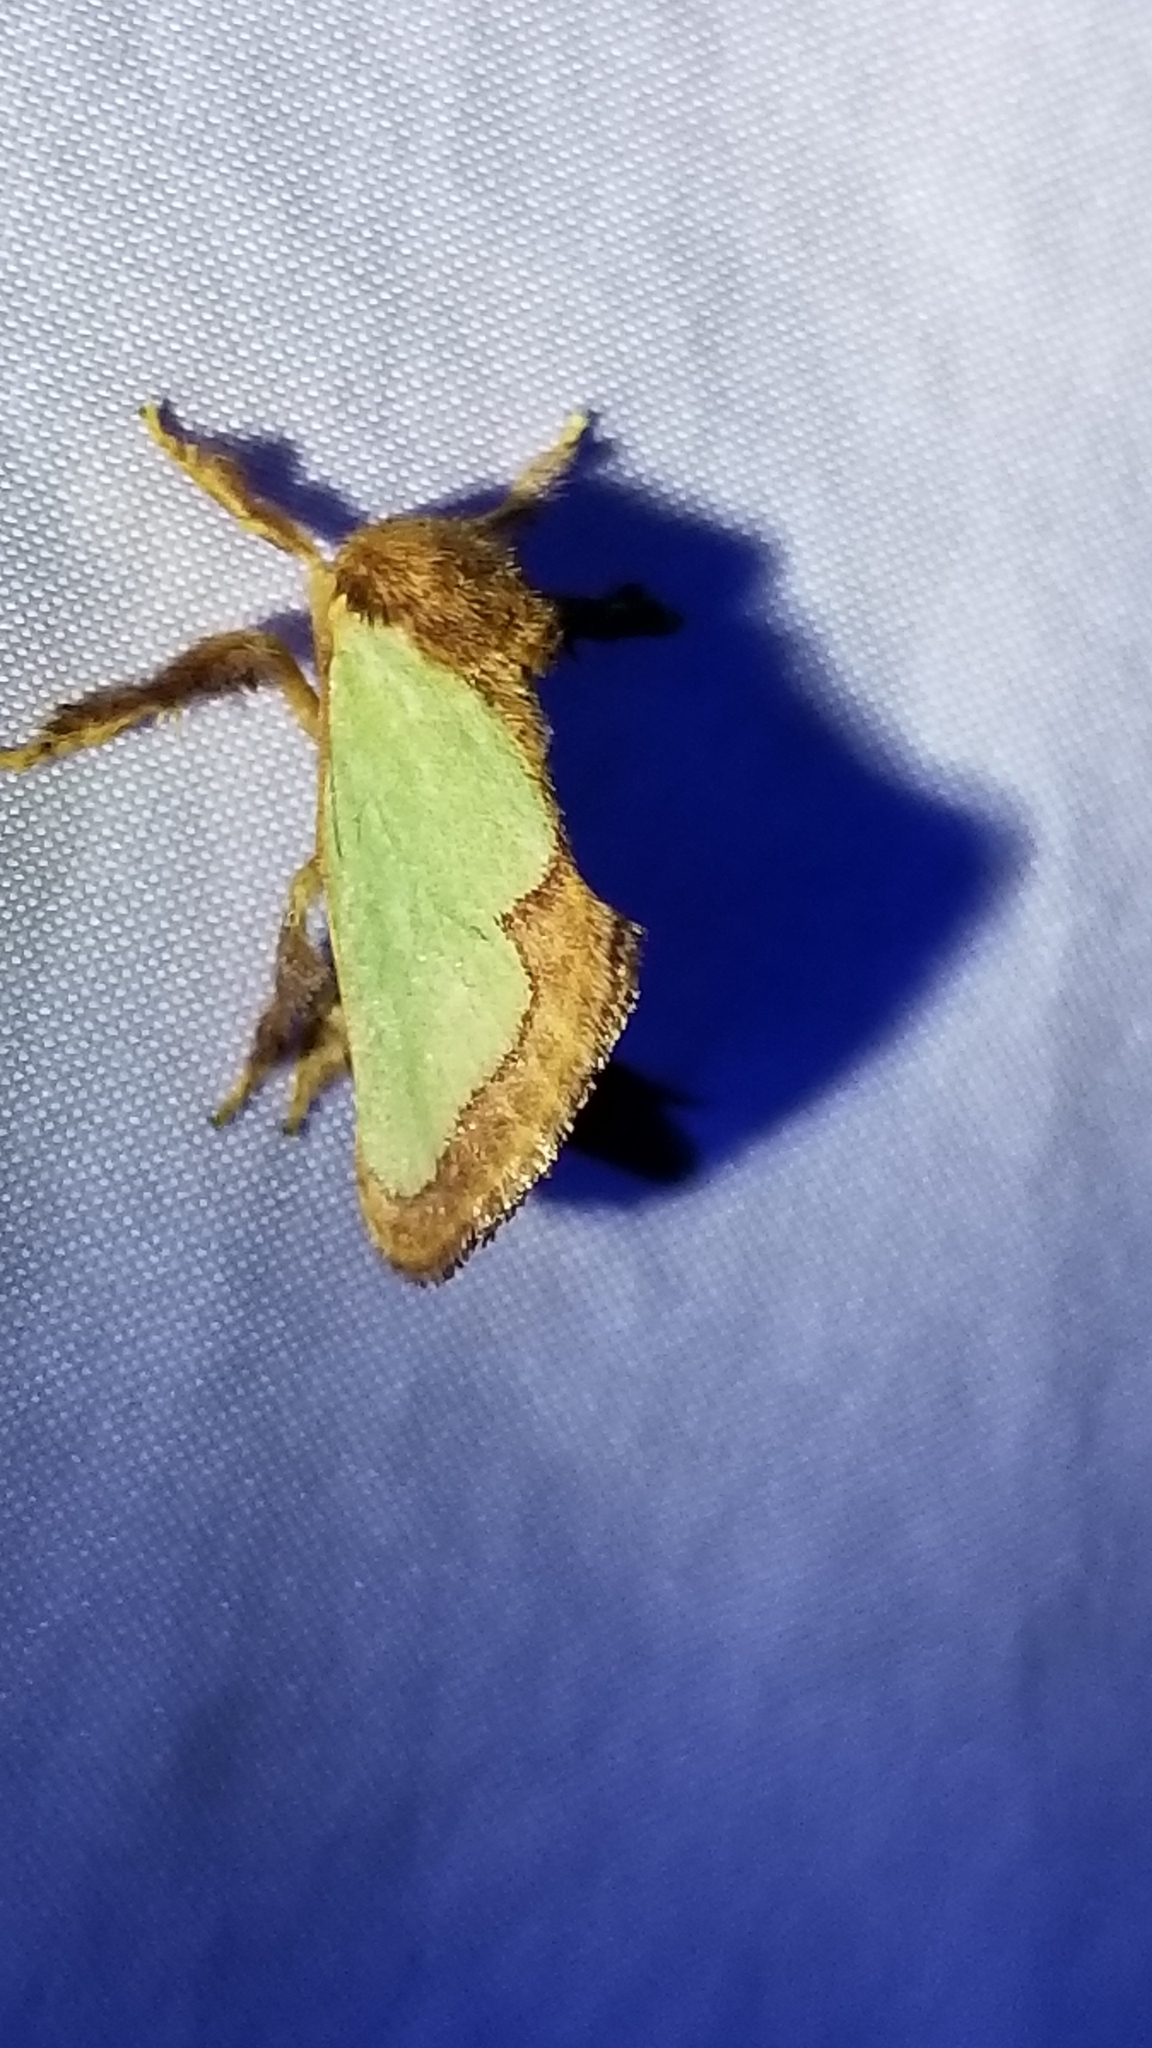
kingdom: Animalia
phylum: Arthropoda
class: Insecta
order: Lepidoptera
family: Limacodidae
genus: Euclea
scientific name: Euclea incisa
